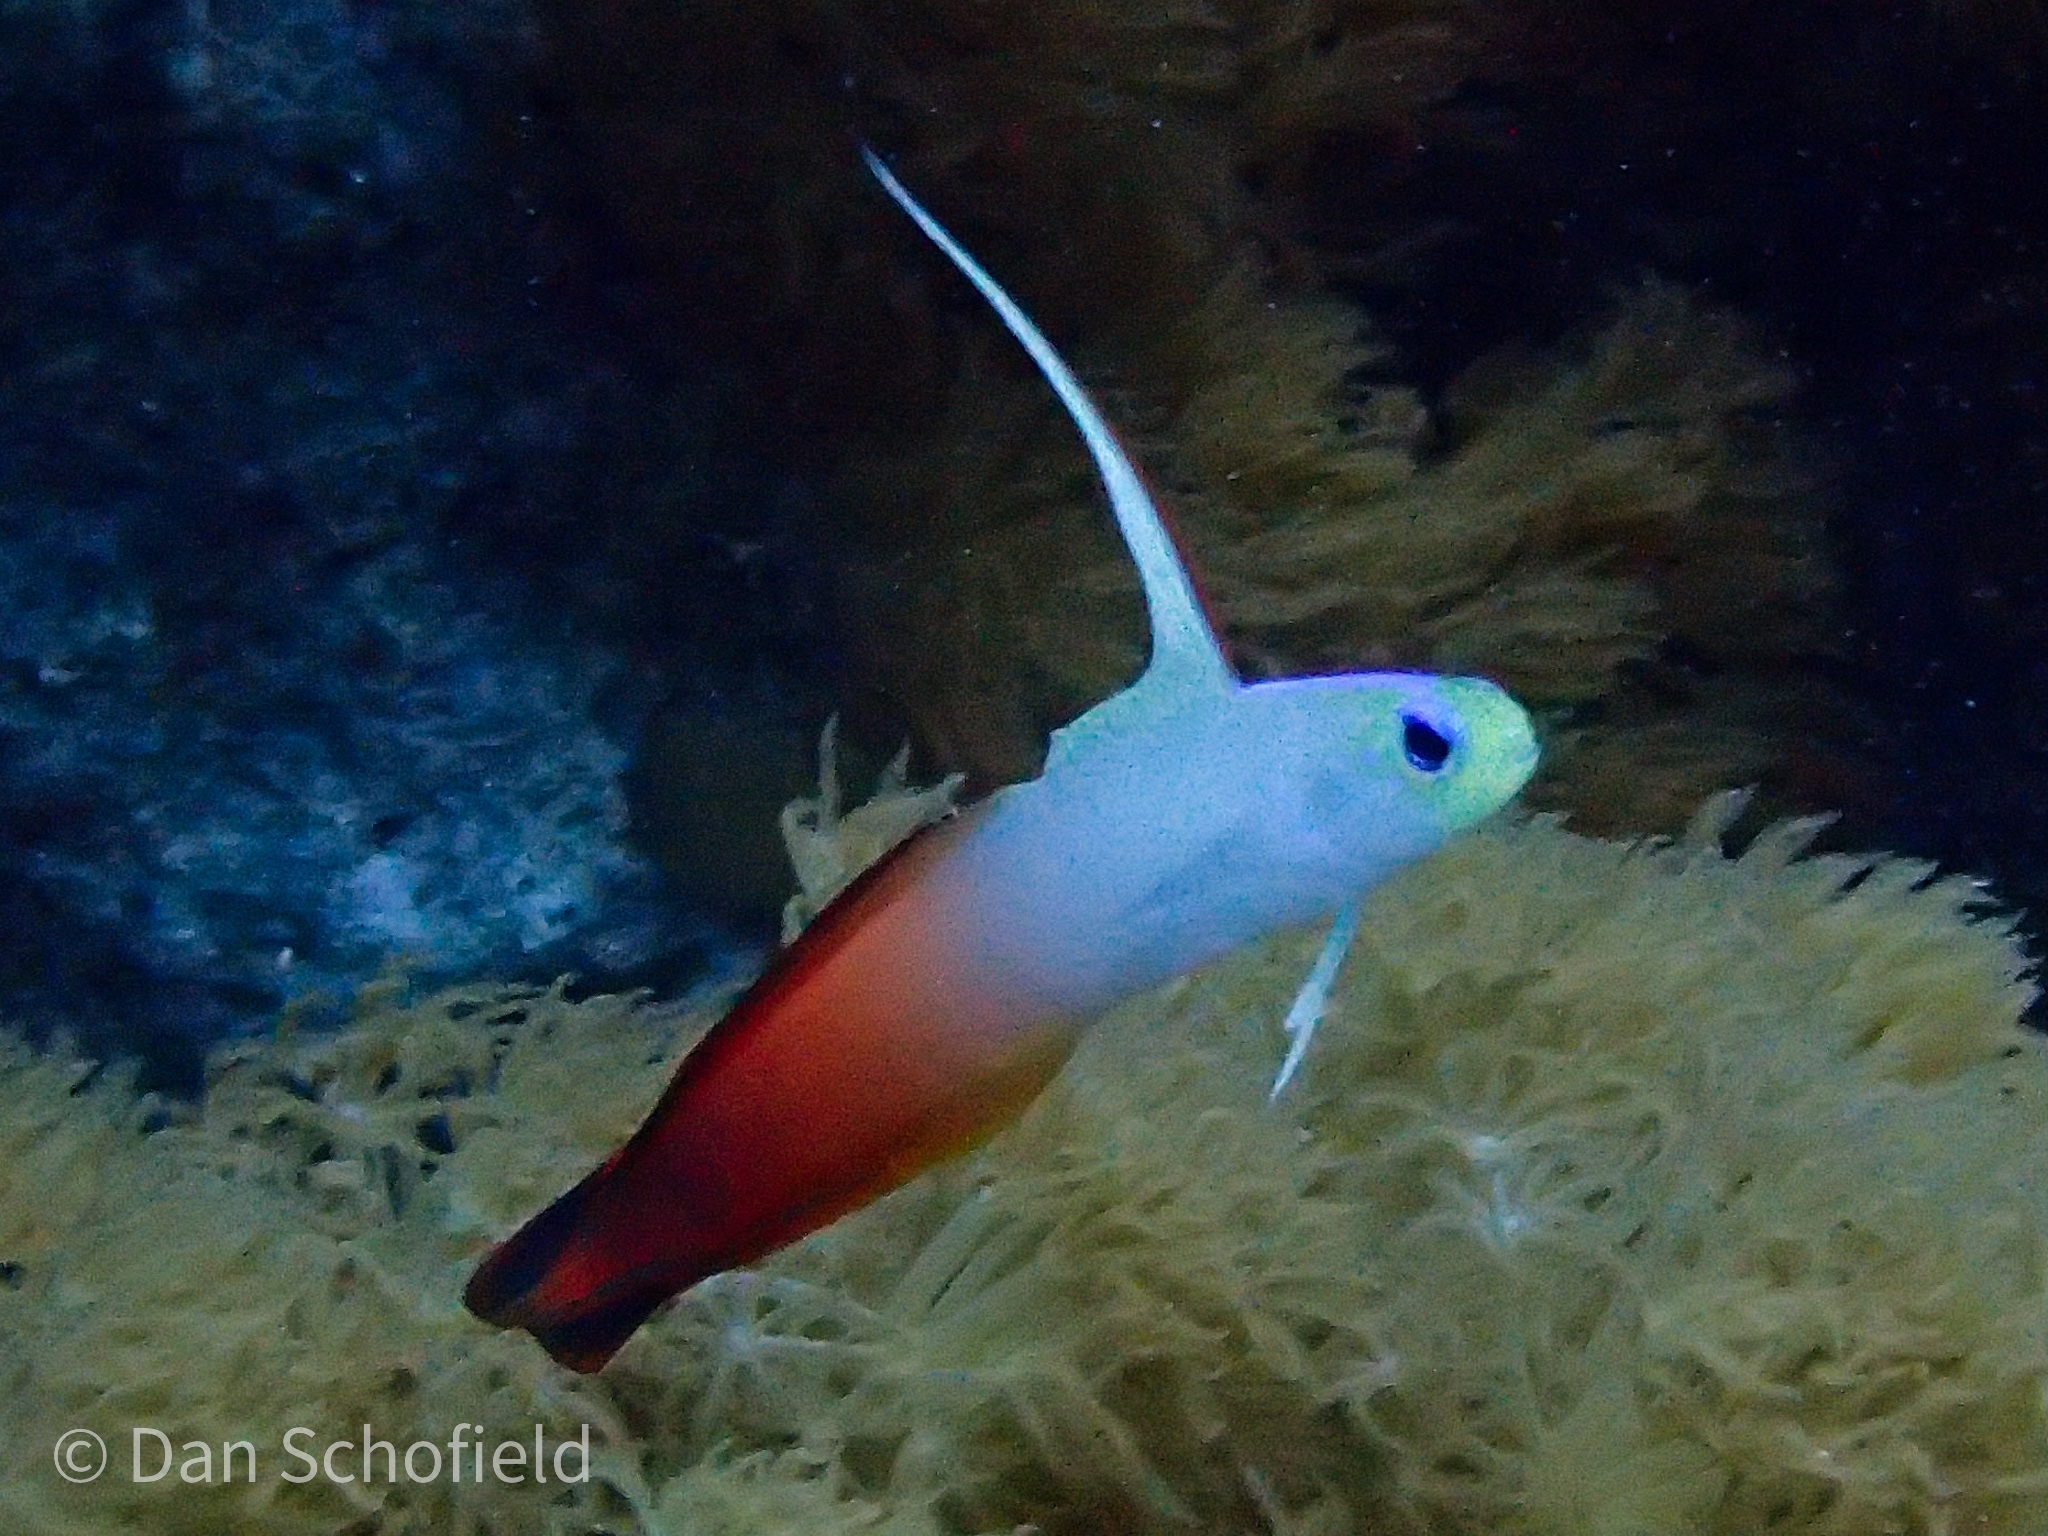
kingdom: Animalia
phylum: Chordata
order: Perciformes
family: Microdesmidae
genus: Nemateleotris
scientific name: Nemateleotris magnifica
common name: Fire goby
